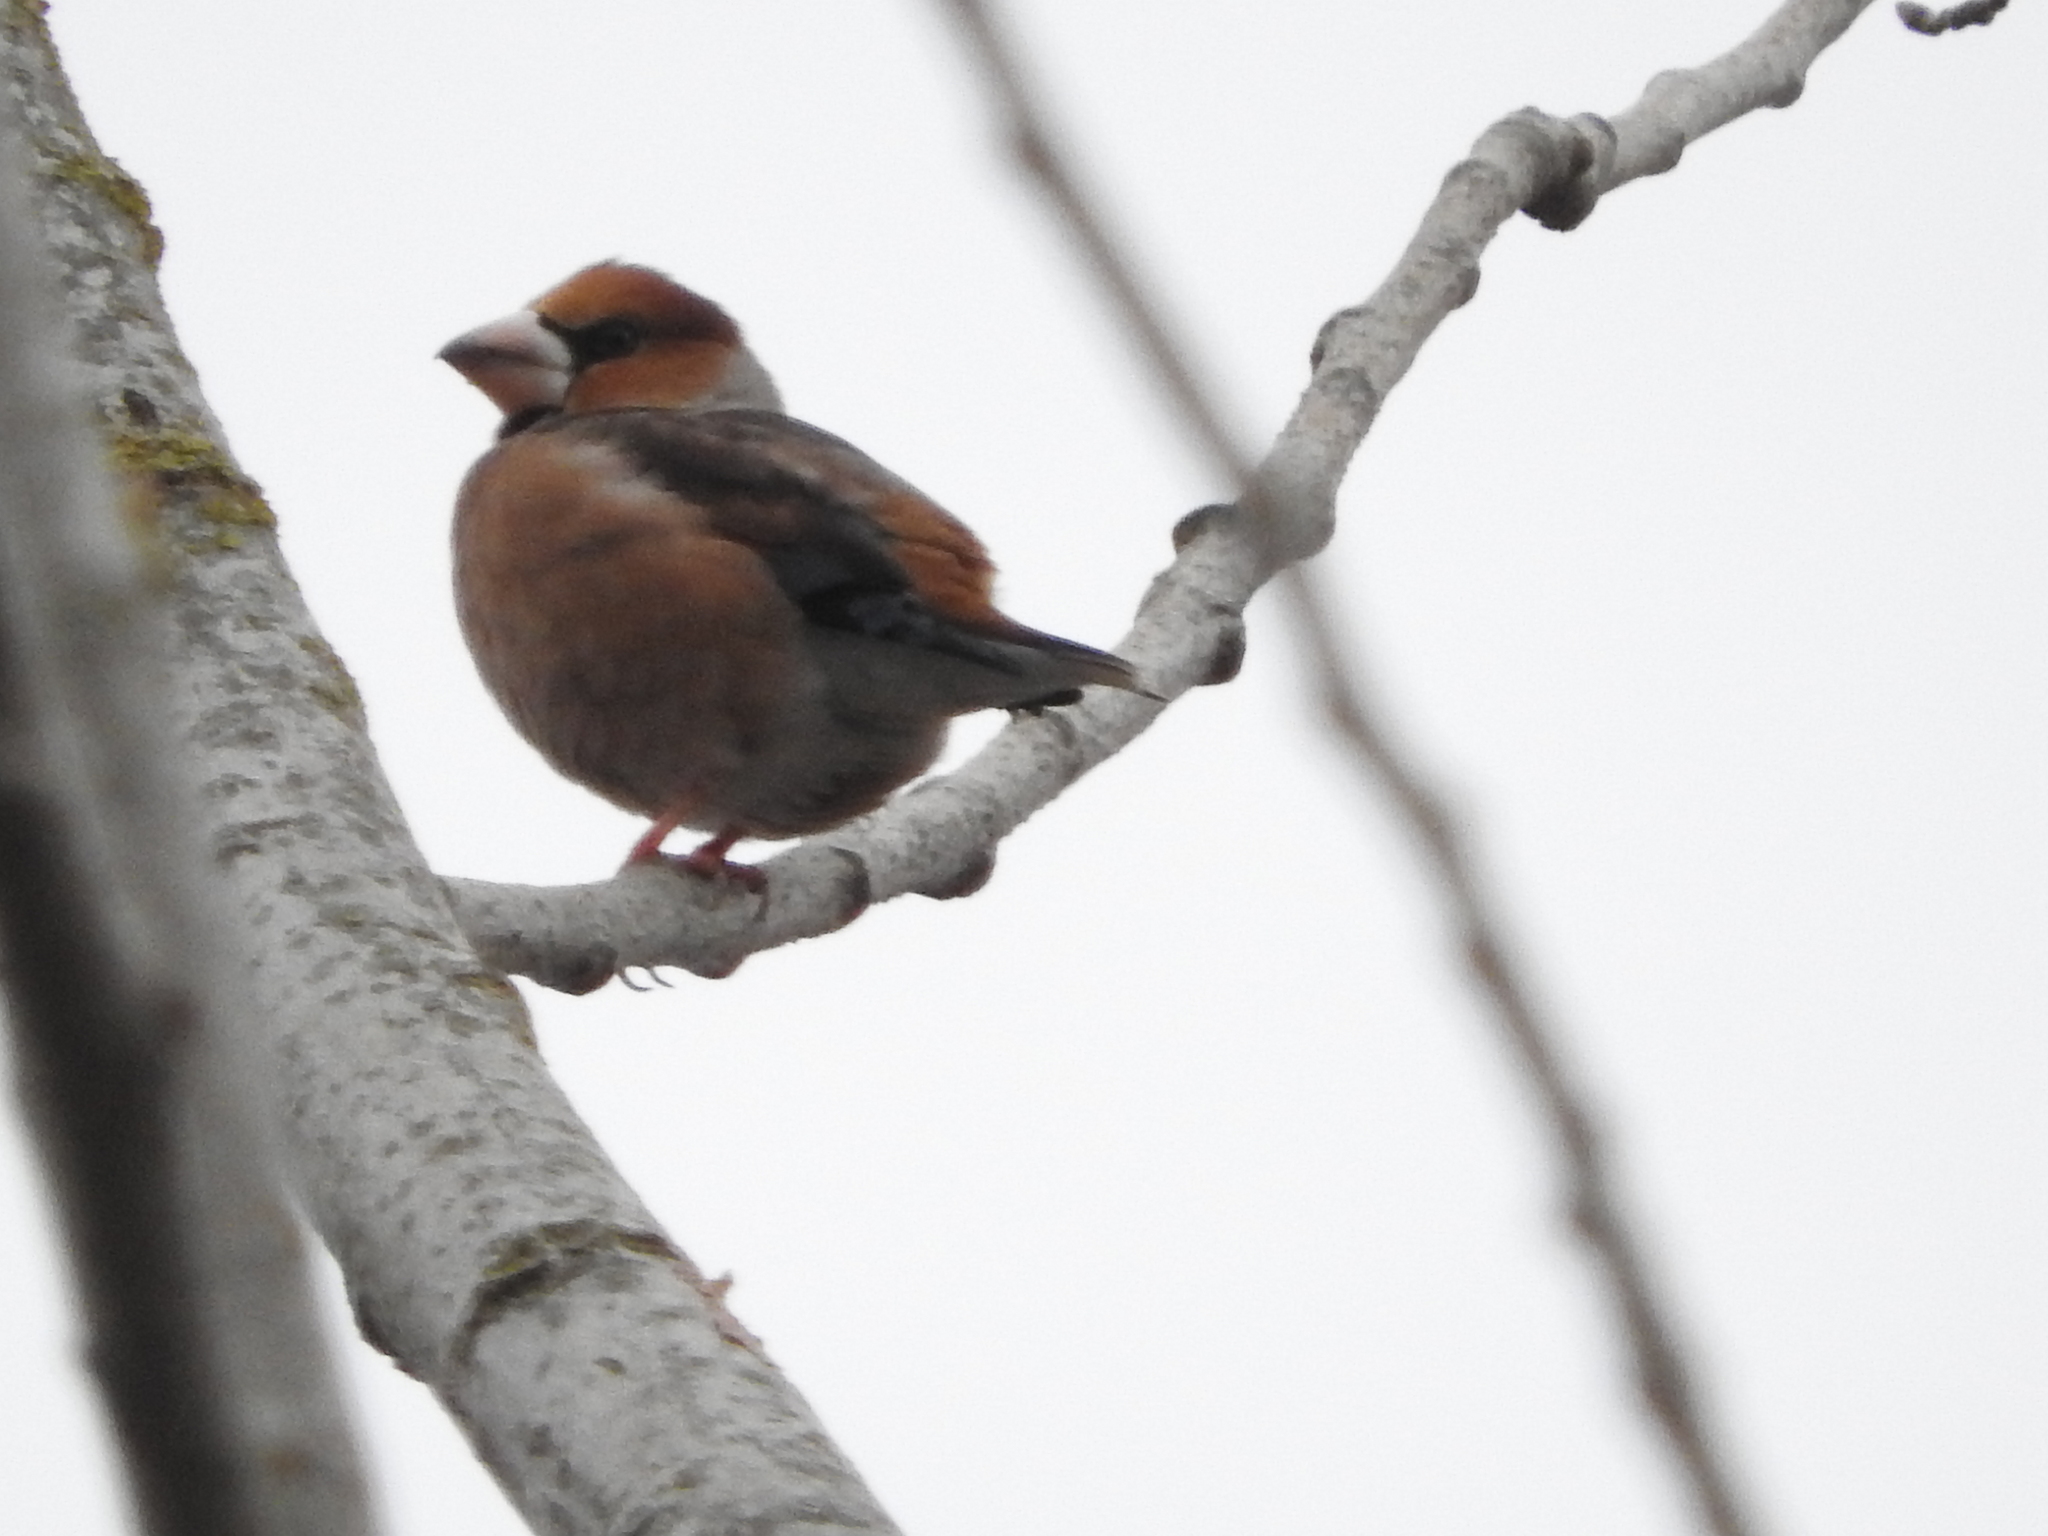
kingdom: Animalia
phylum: Chordata
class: Aves
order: Passeriformes
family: Fringillidae
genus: Coccothraustes
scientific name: Coccothraustes coccothraustes
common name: Hawfinch
